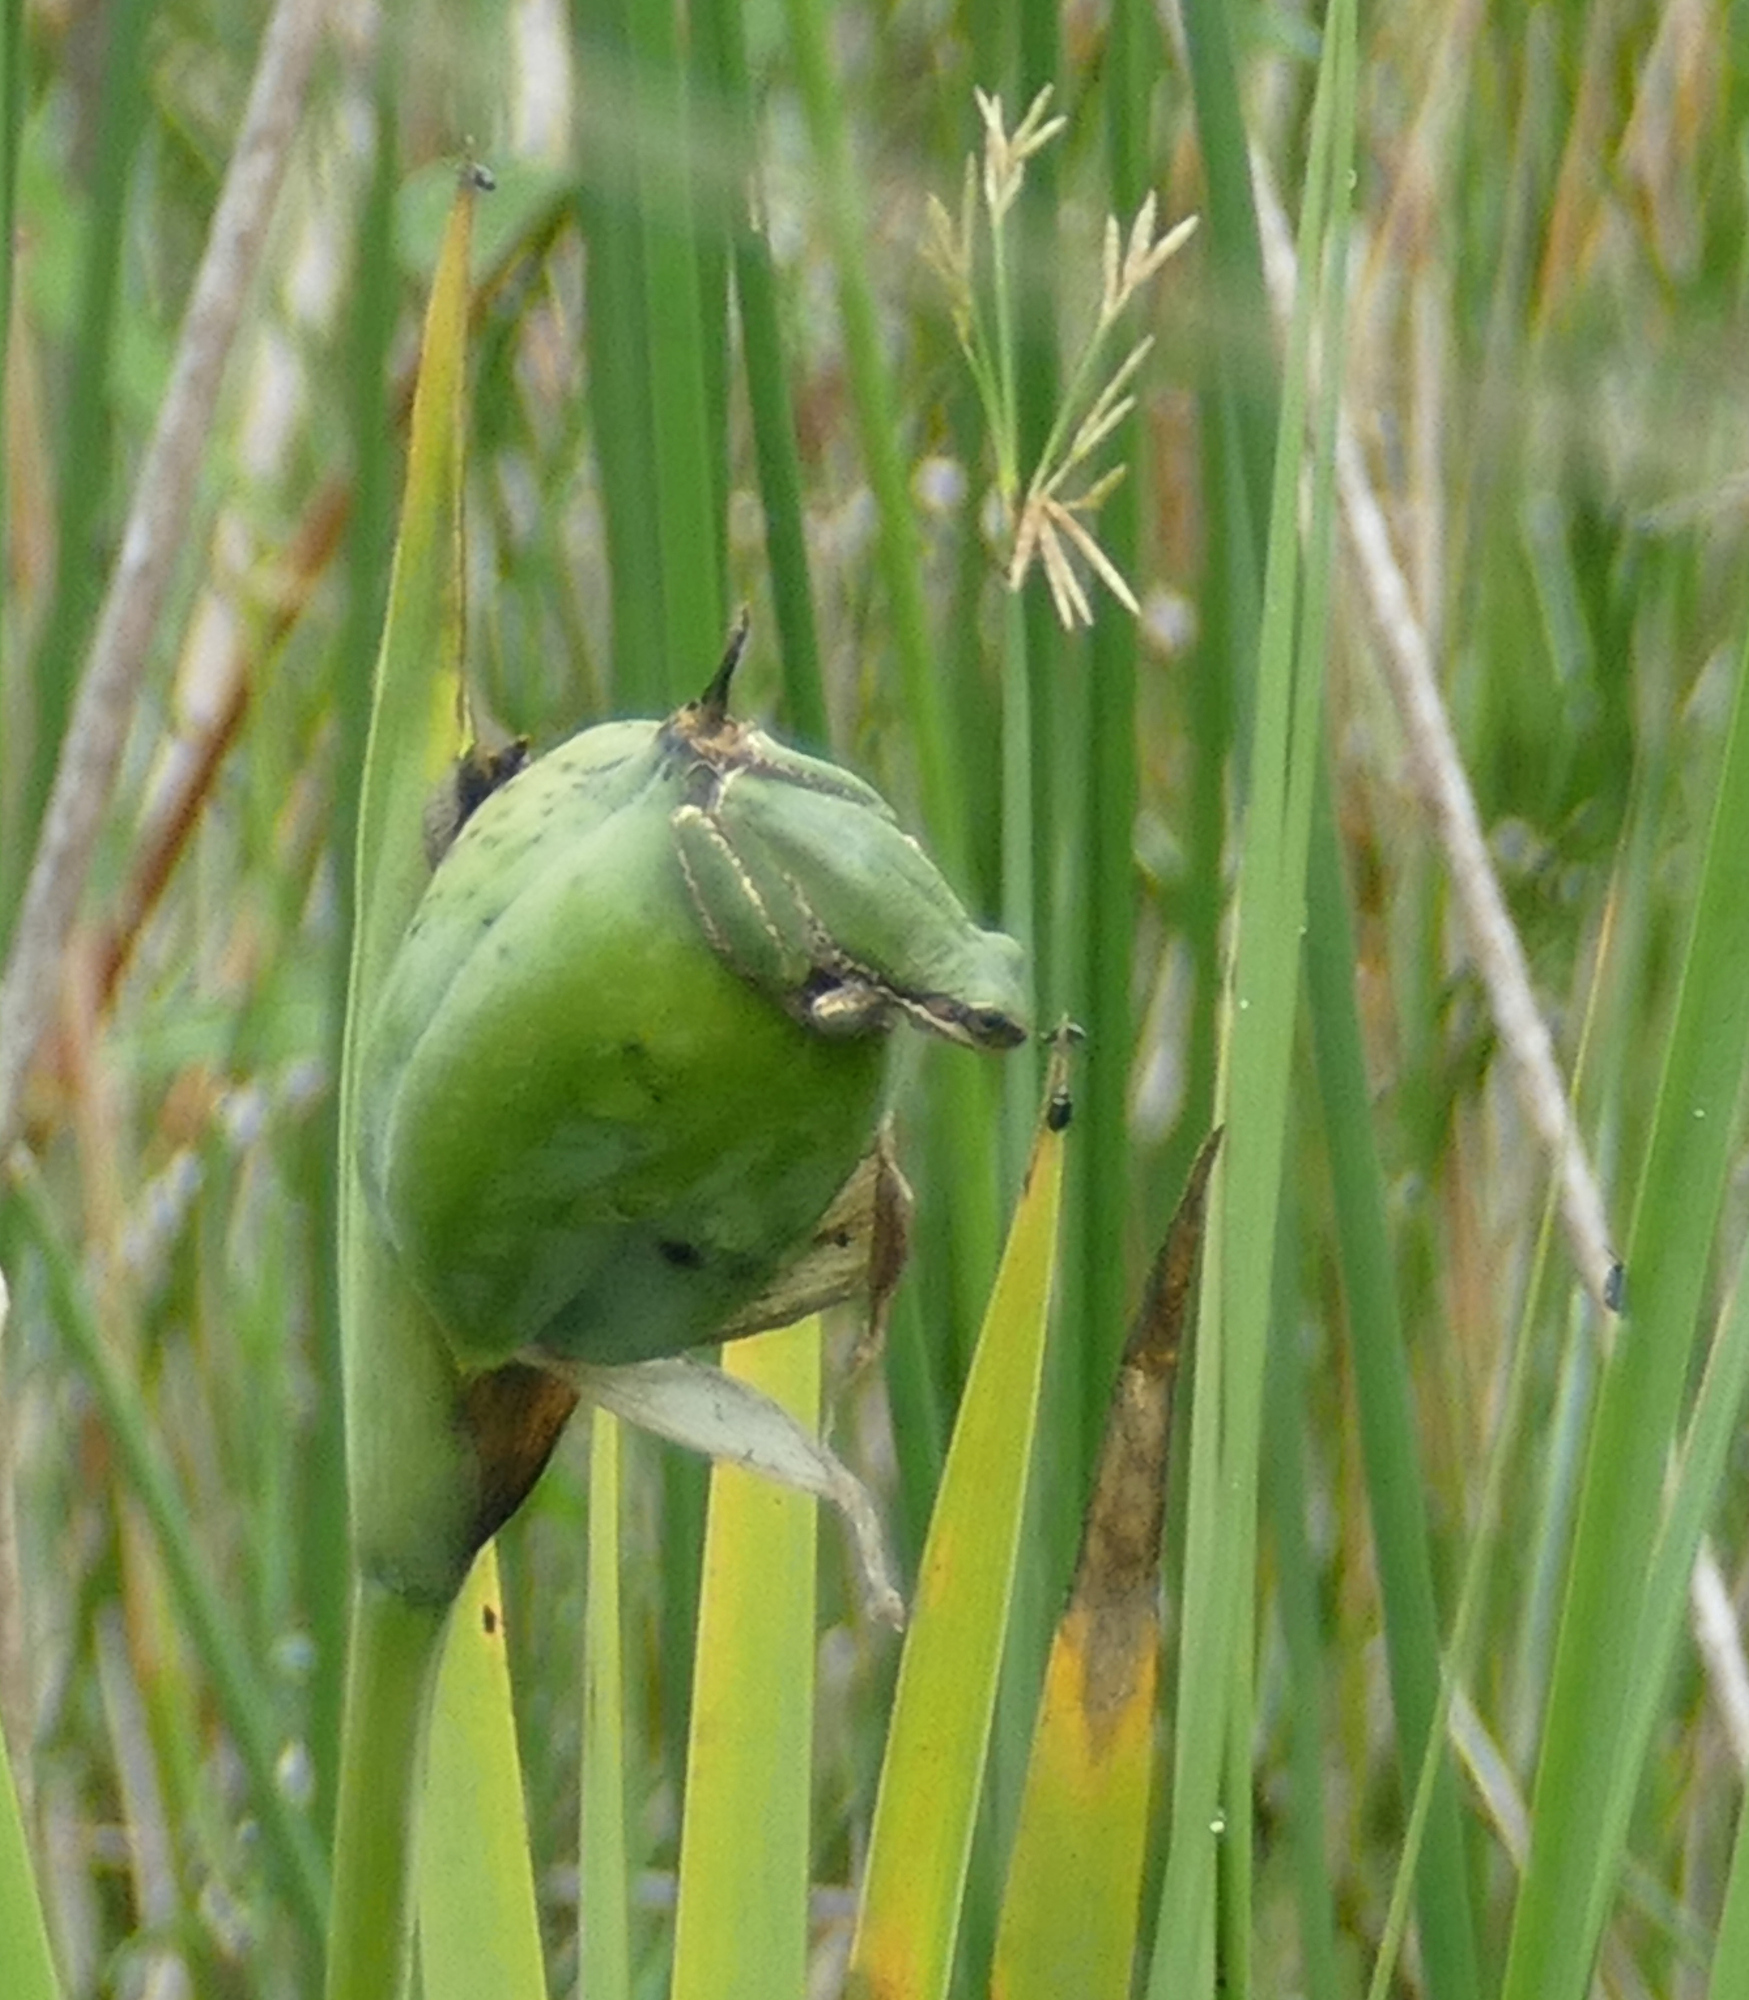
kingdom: Plantae
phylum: Tracheophyta
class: Liliopsida
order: Asparagales
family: Iridaceae
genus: Iris
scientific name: Iris giganticaerulea
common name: Giant blue iris
